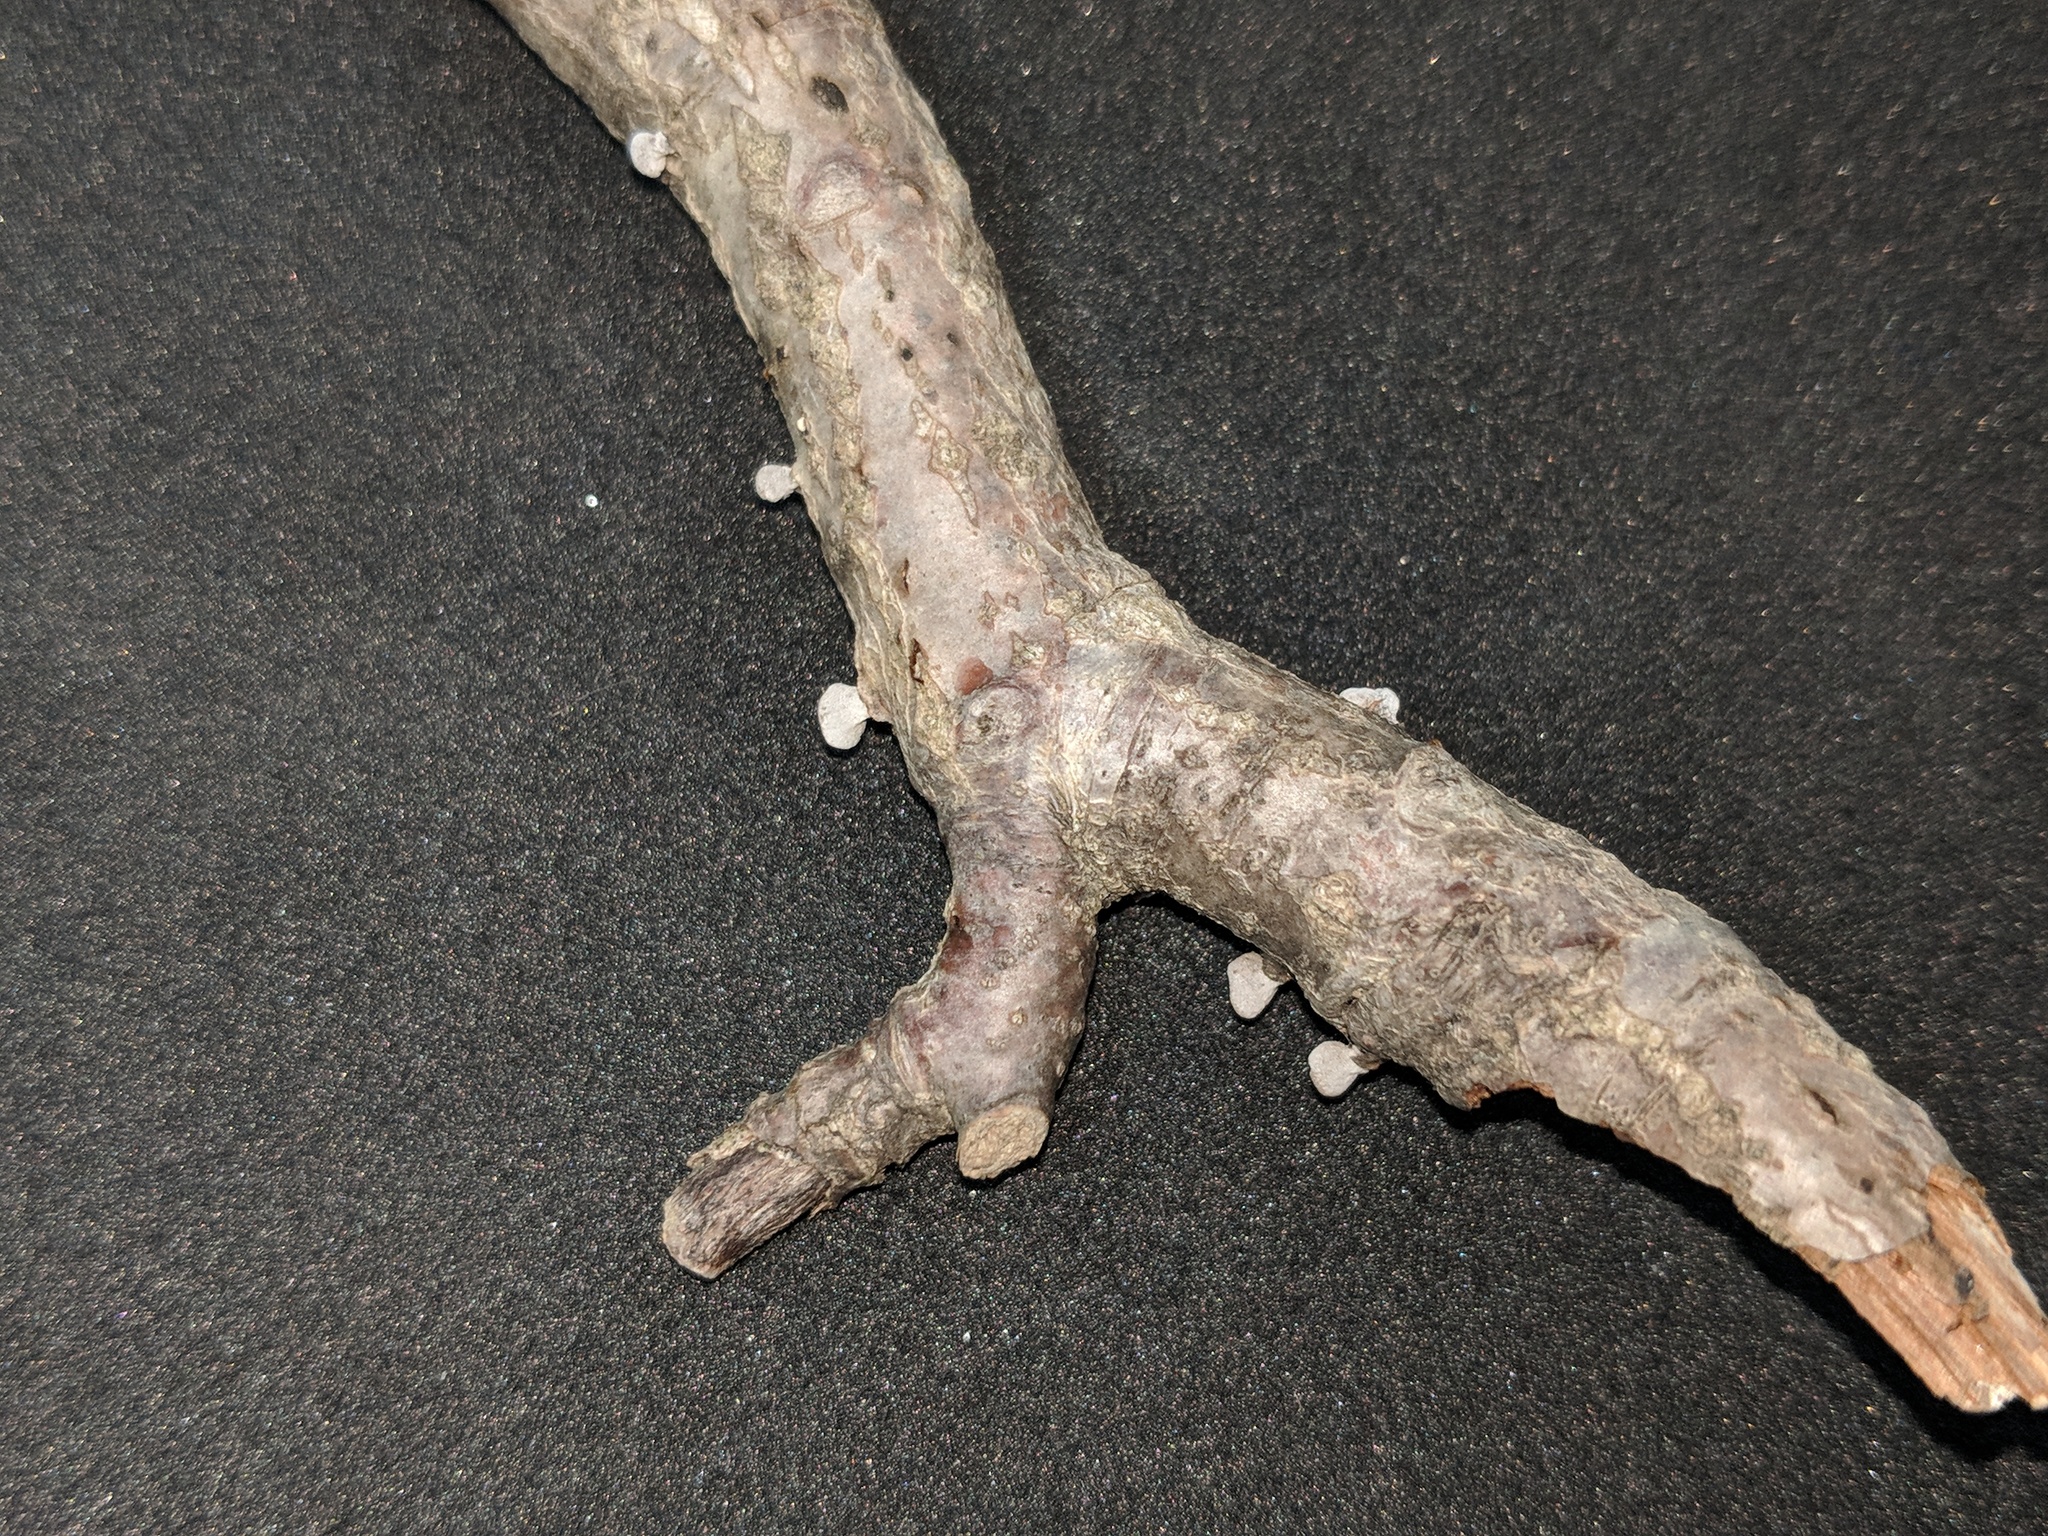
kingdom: Fungi
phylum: Basidiomycota
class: Agaricomycetes
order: Agaricales
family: Schizophyllaceae
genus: Porodisculus
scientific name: Porodisculus pendulus
